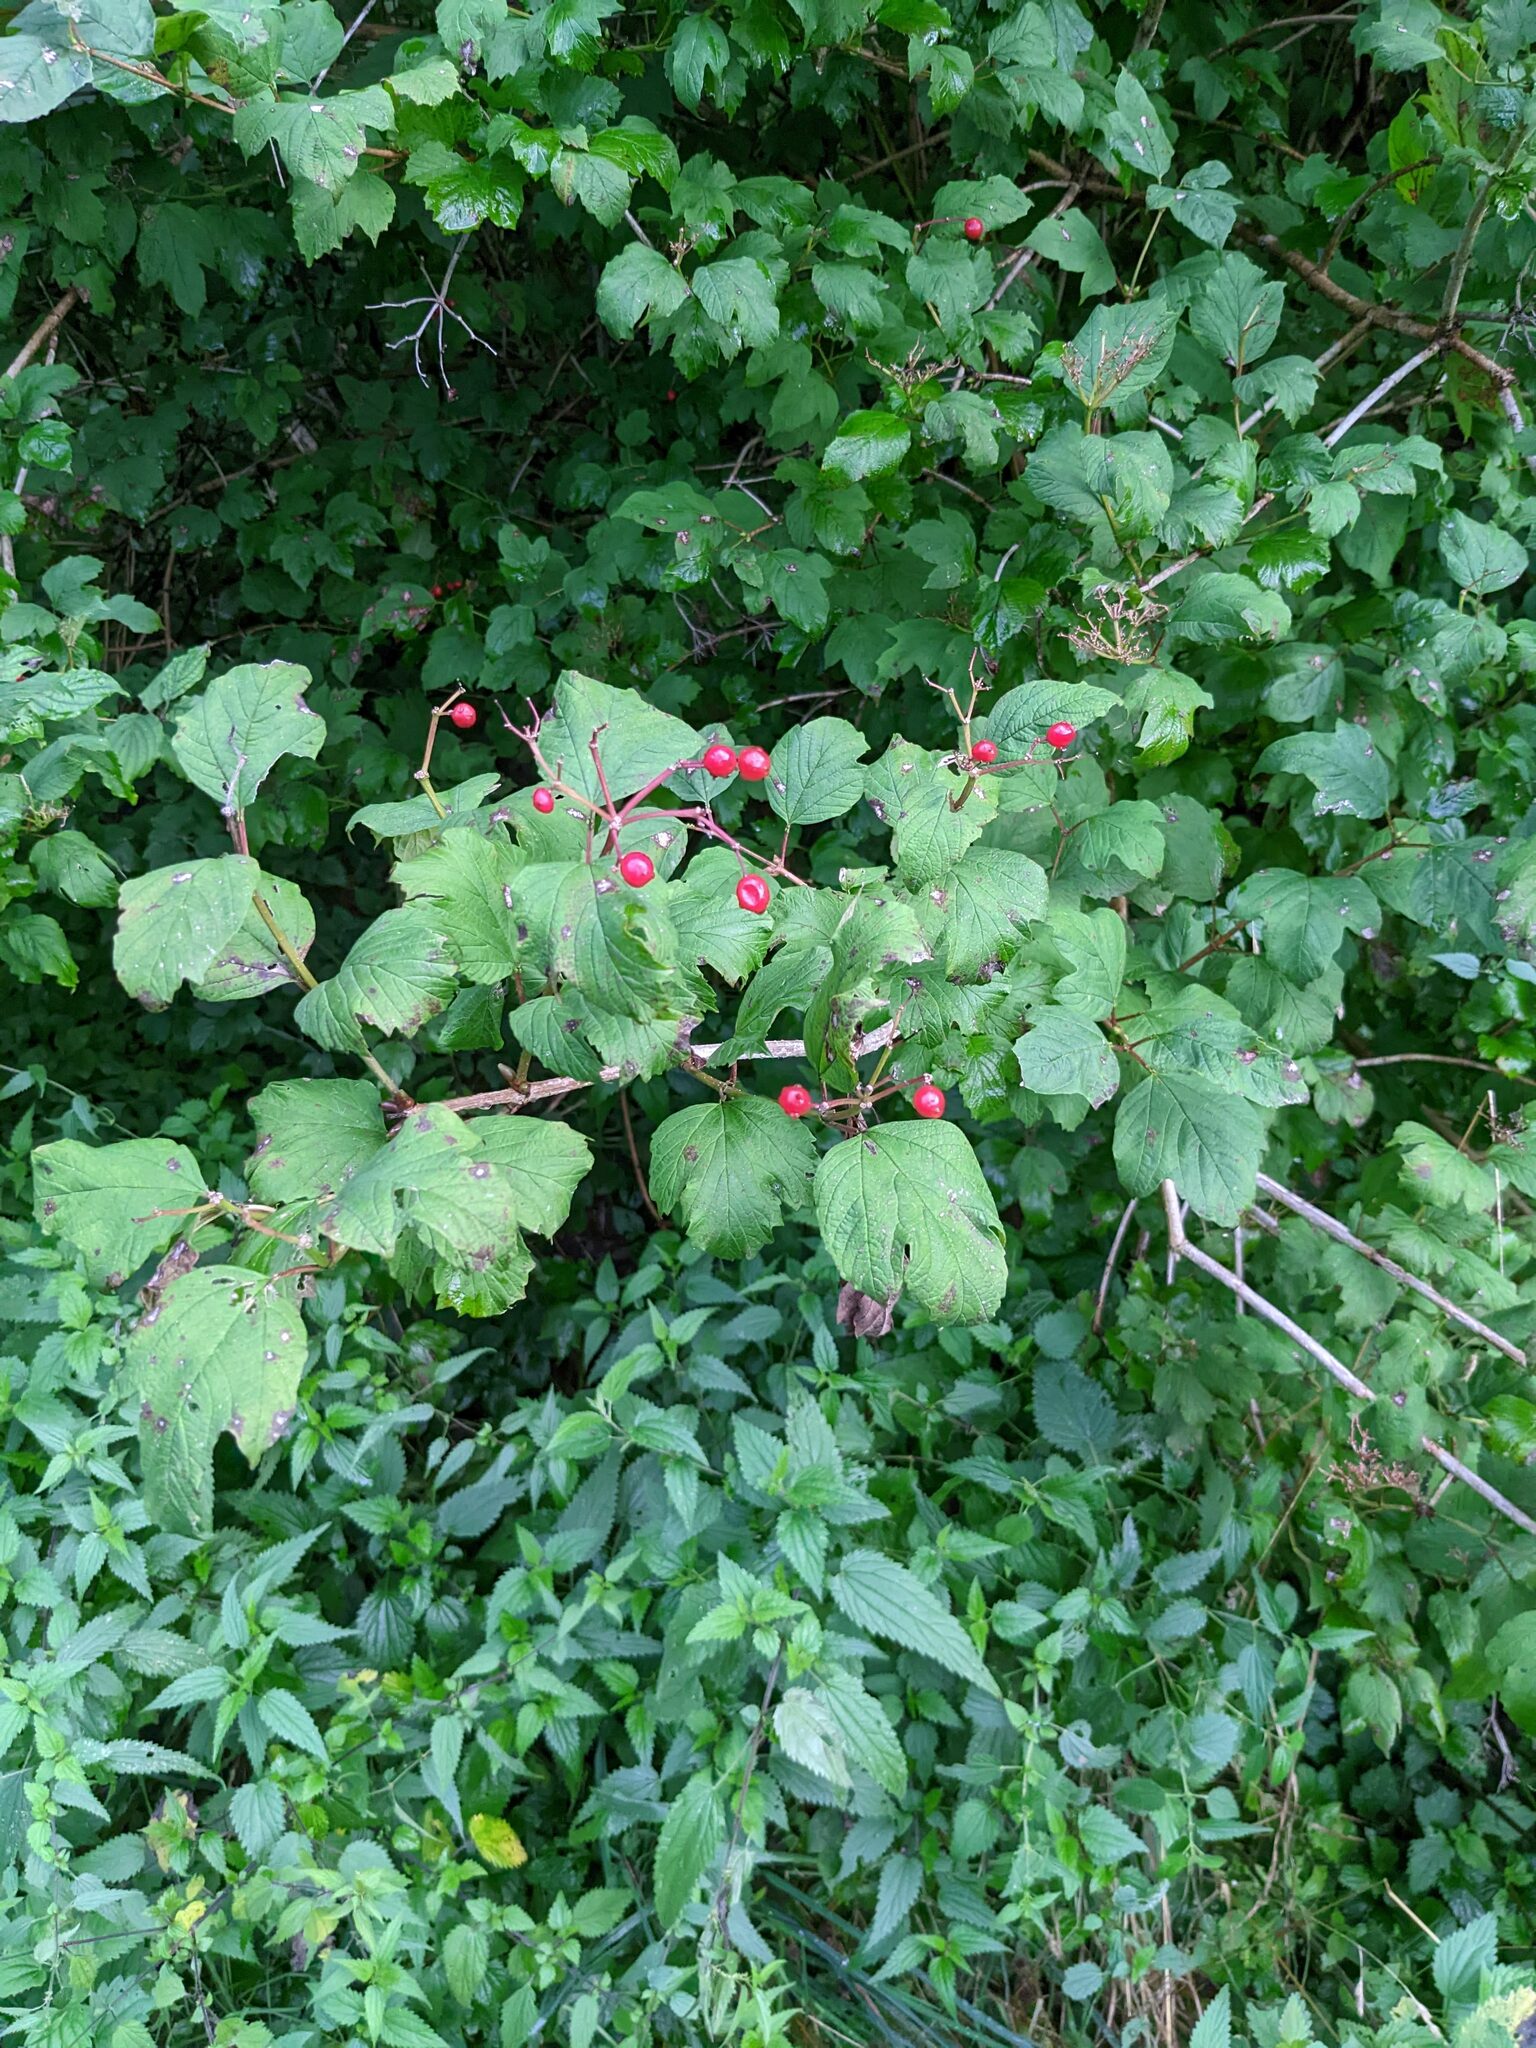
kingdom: Plantae
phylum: Tracheophyta
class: Magnoliopsida
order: Dipsacales
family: Viburnaceae
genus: Viburnum
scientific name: Viburnum opulus
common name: Guelder-rose
